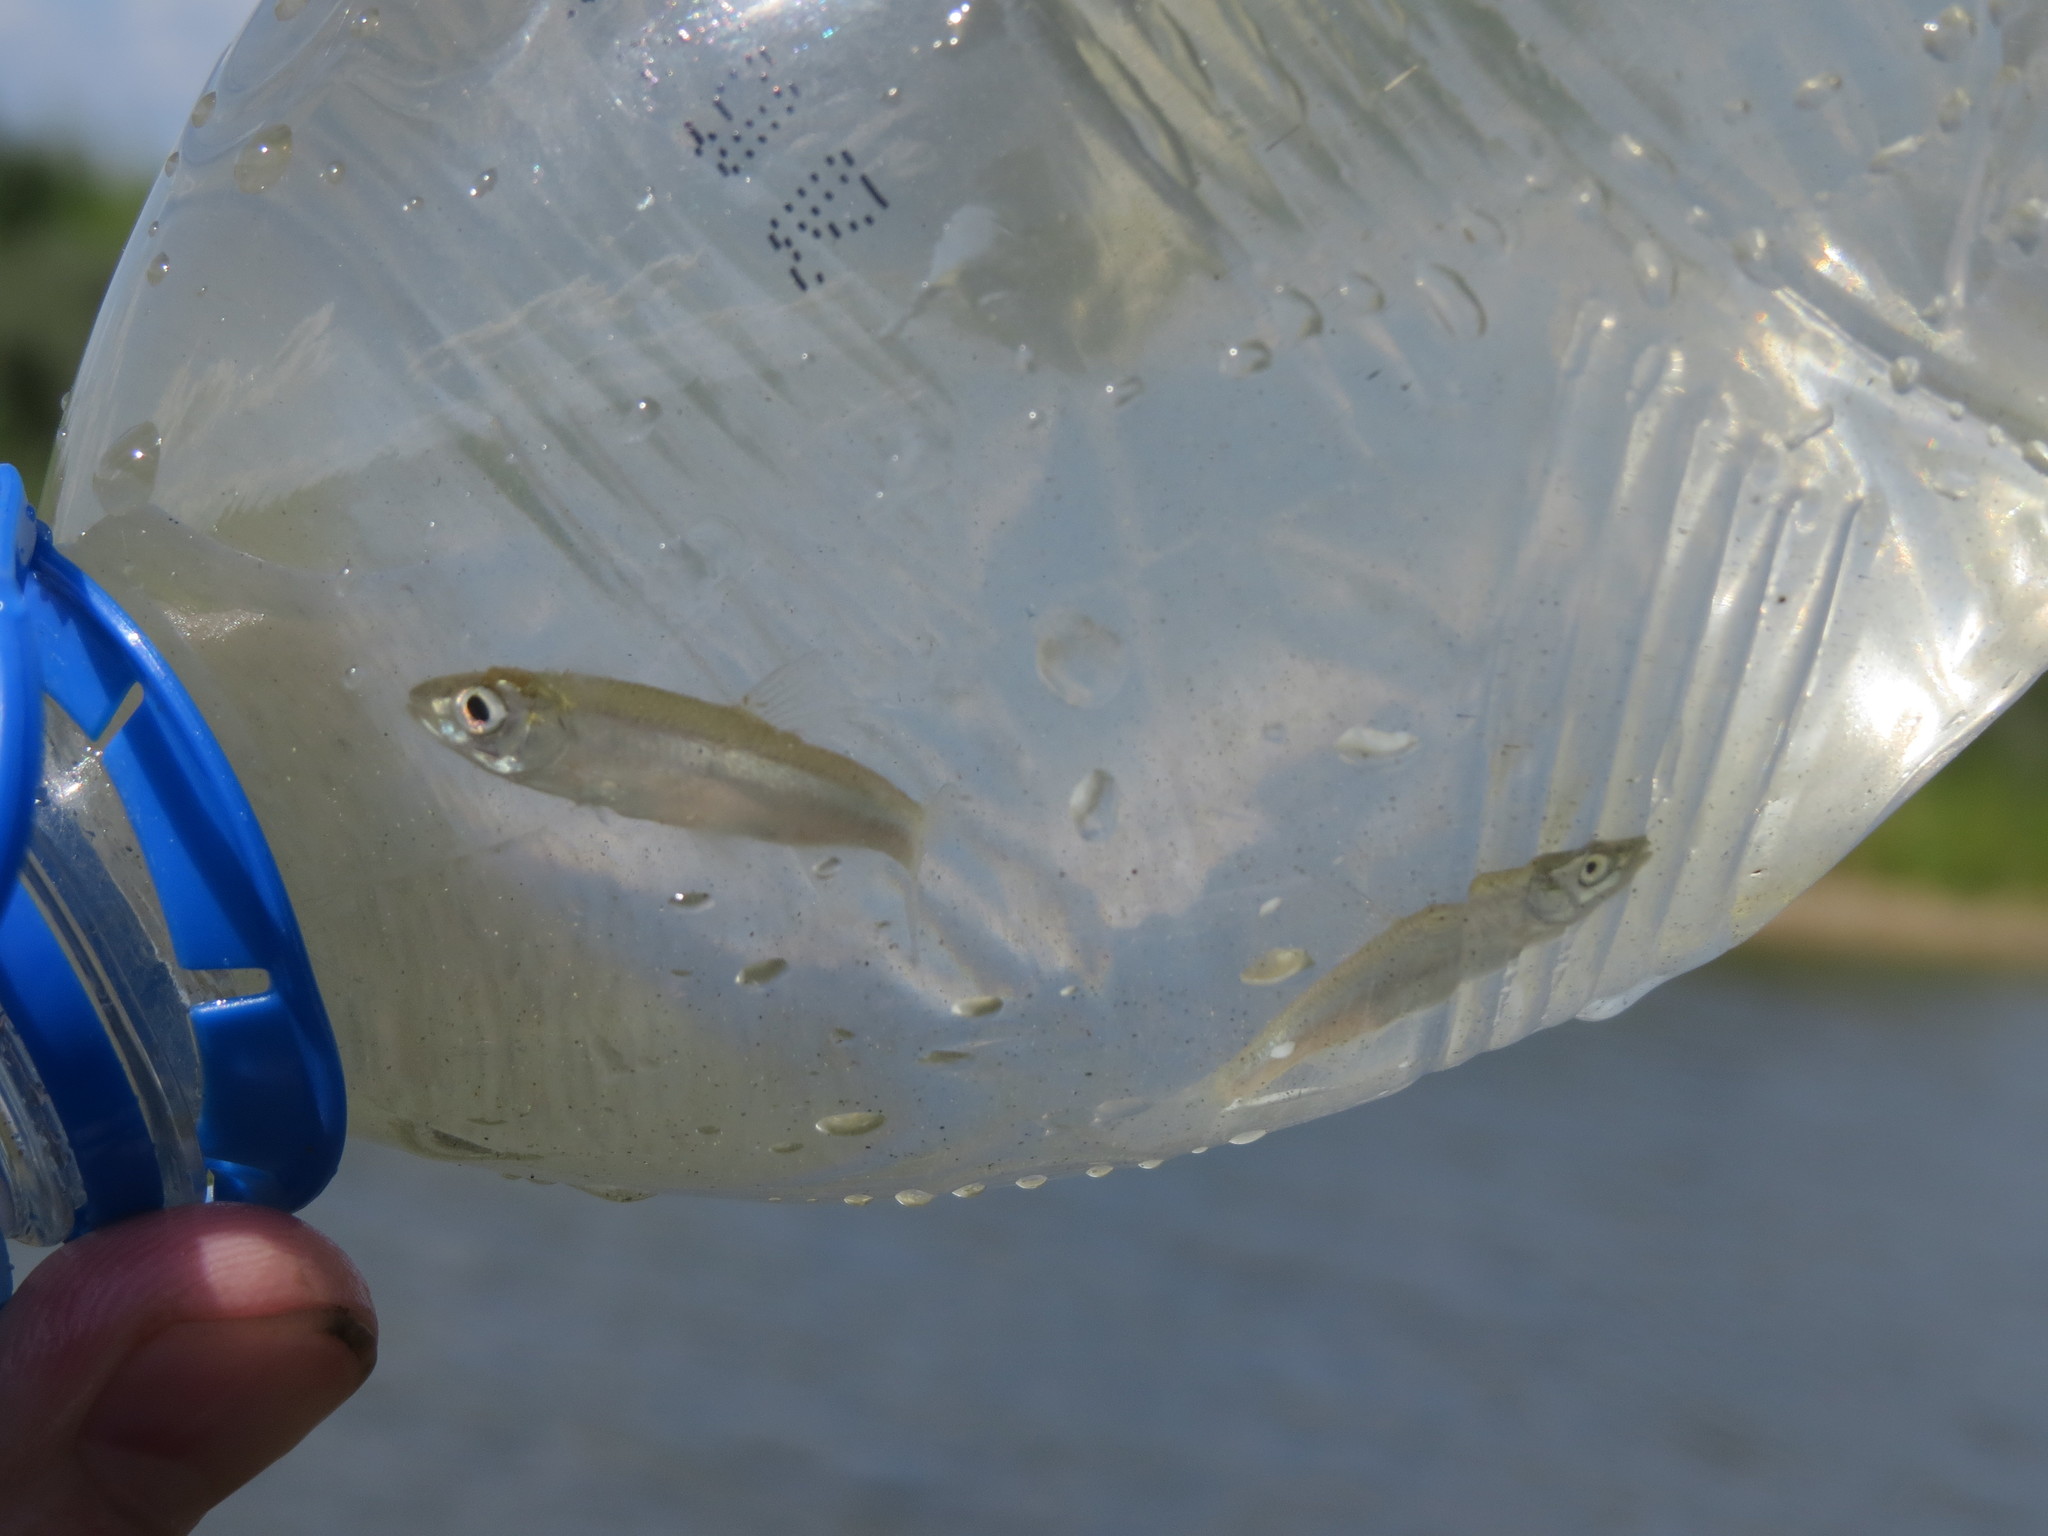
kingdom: Animalia
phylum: Chordata
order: Cypriniformes
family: Cyprinidae
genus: Alburnus
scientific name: Alburnus alburnus
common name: Bleak
